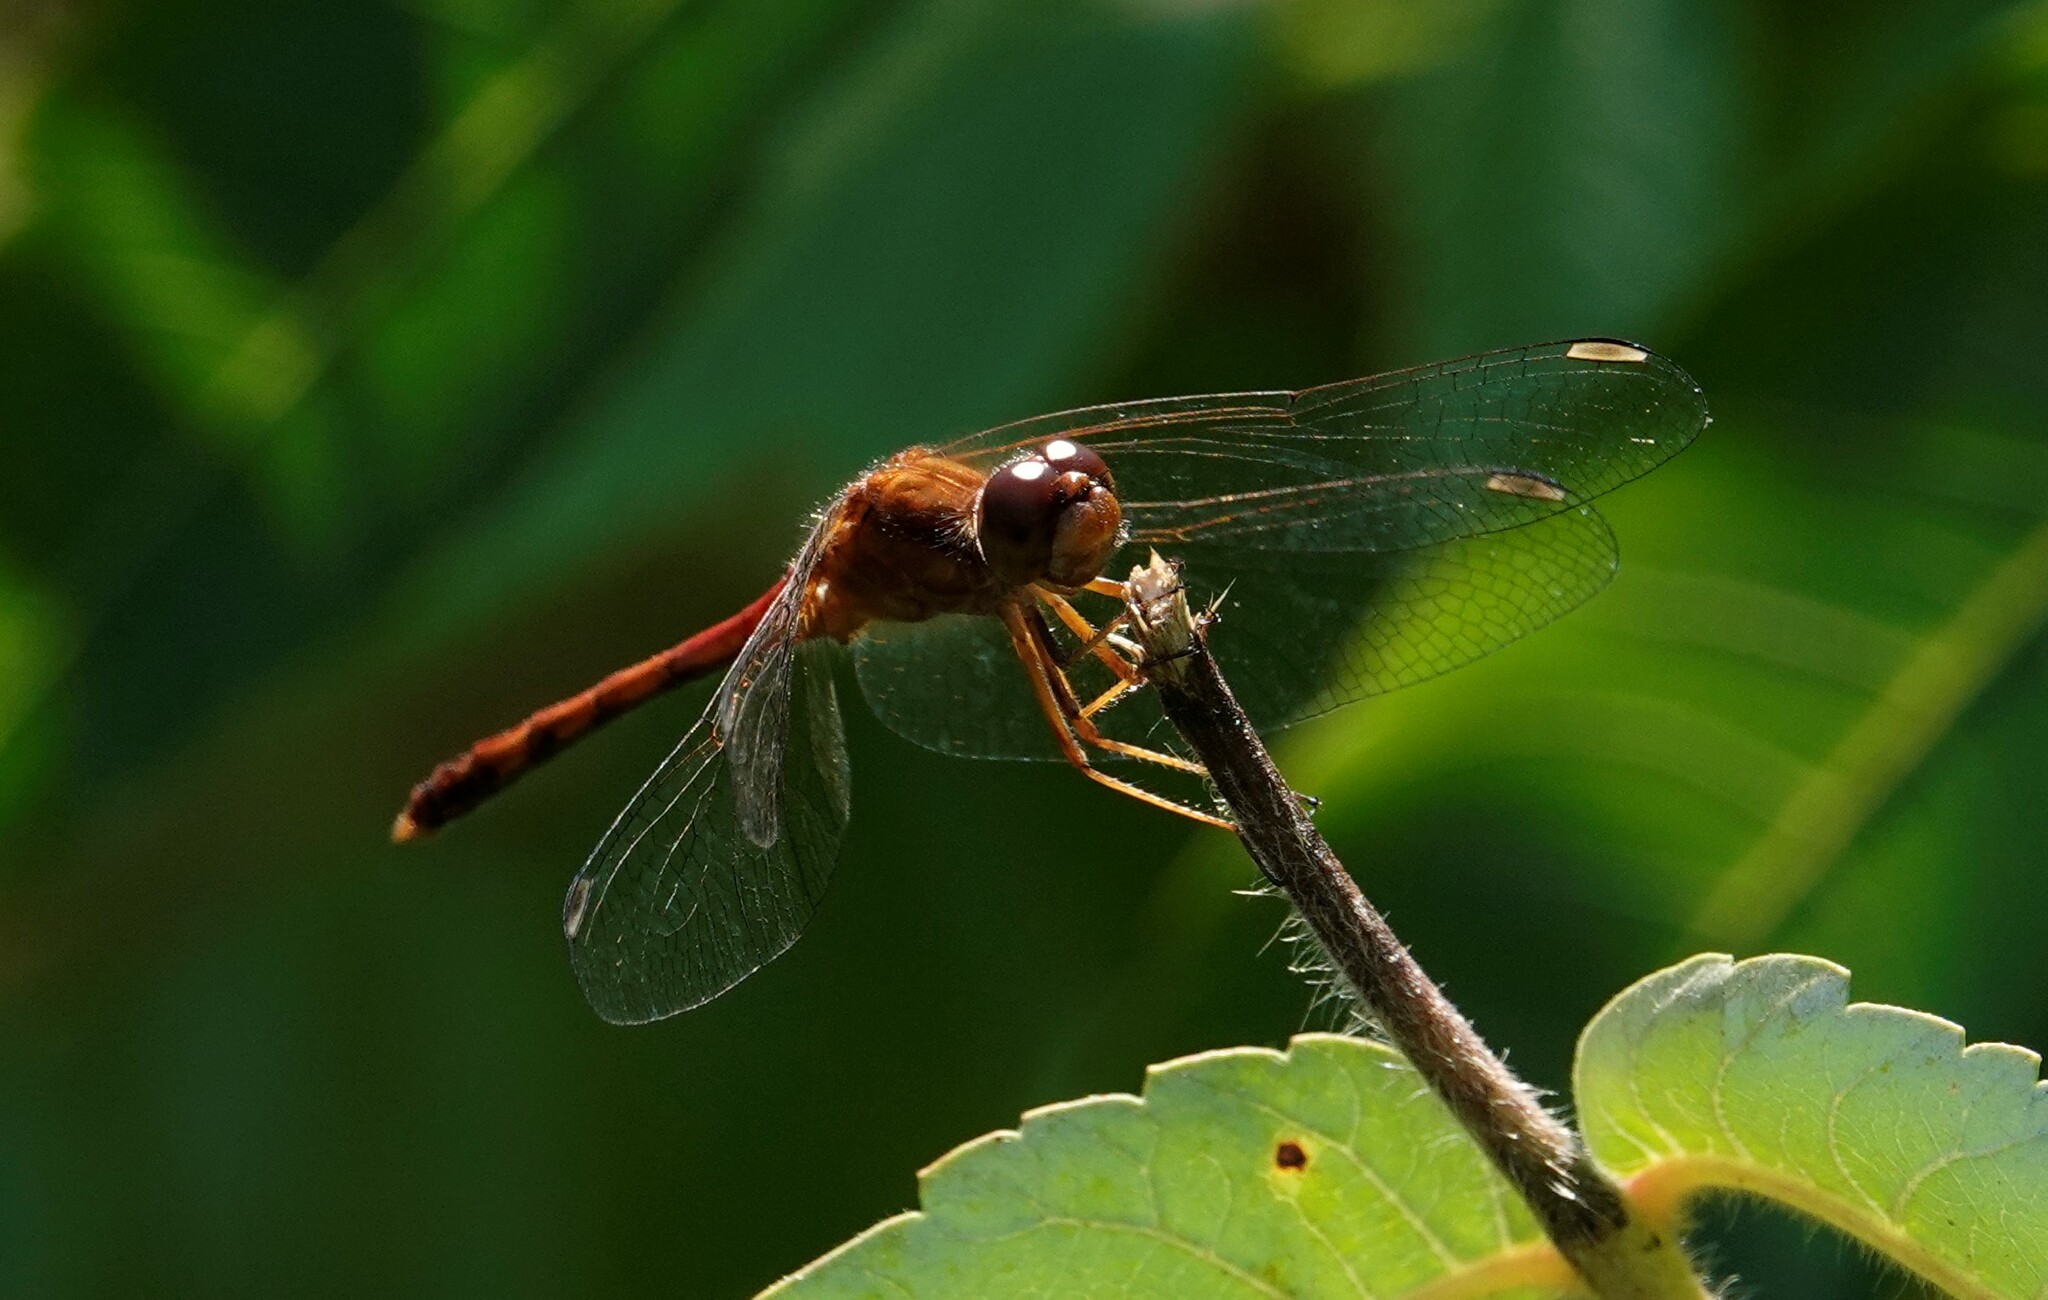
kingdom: Animalia
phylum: Arthropoda
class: Insecta
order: Odonata
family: Libellulidae
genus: Sympetrum
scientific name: Sympetrum vicinum
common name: Autumn meadowhawk
